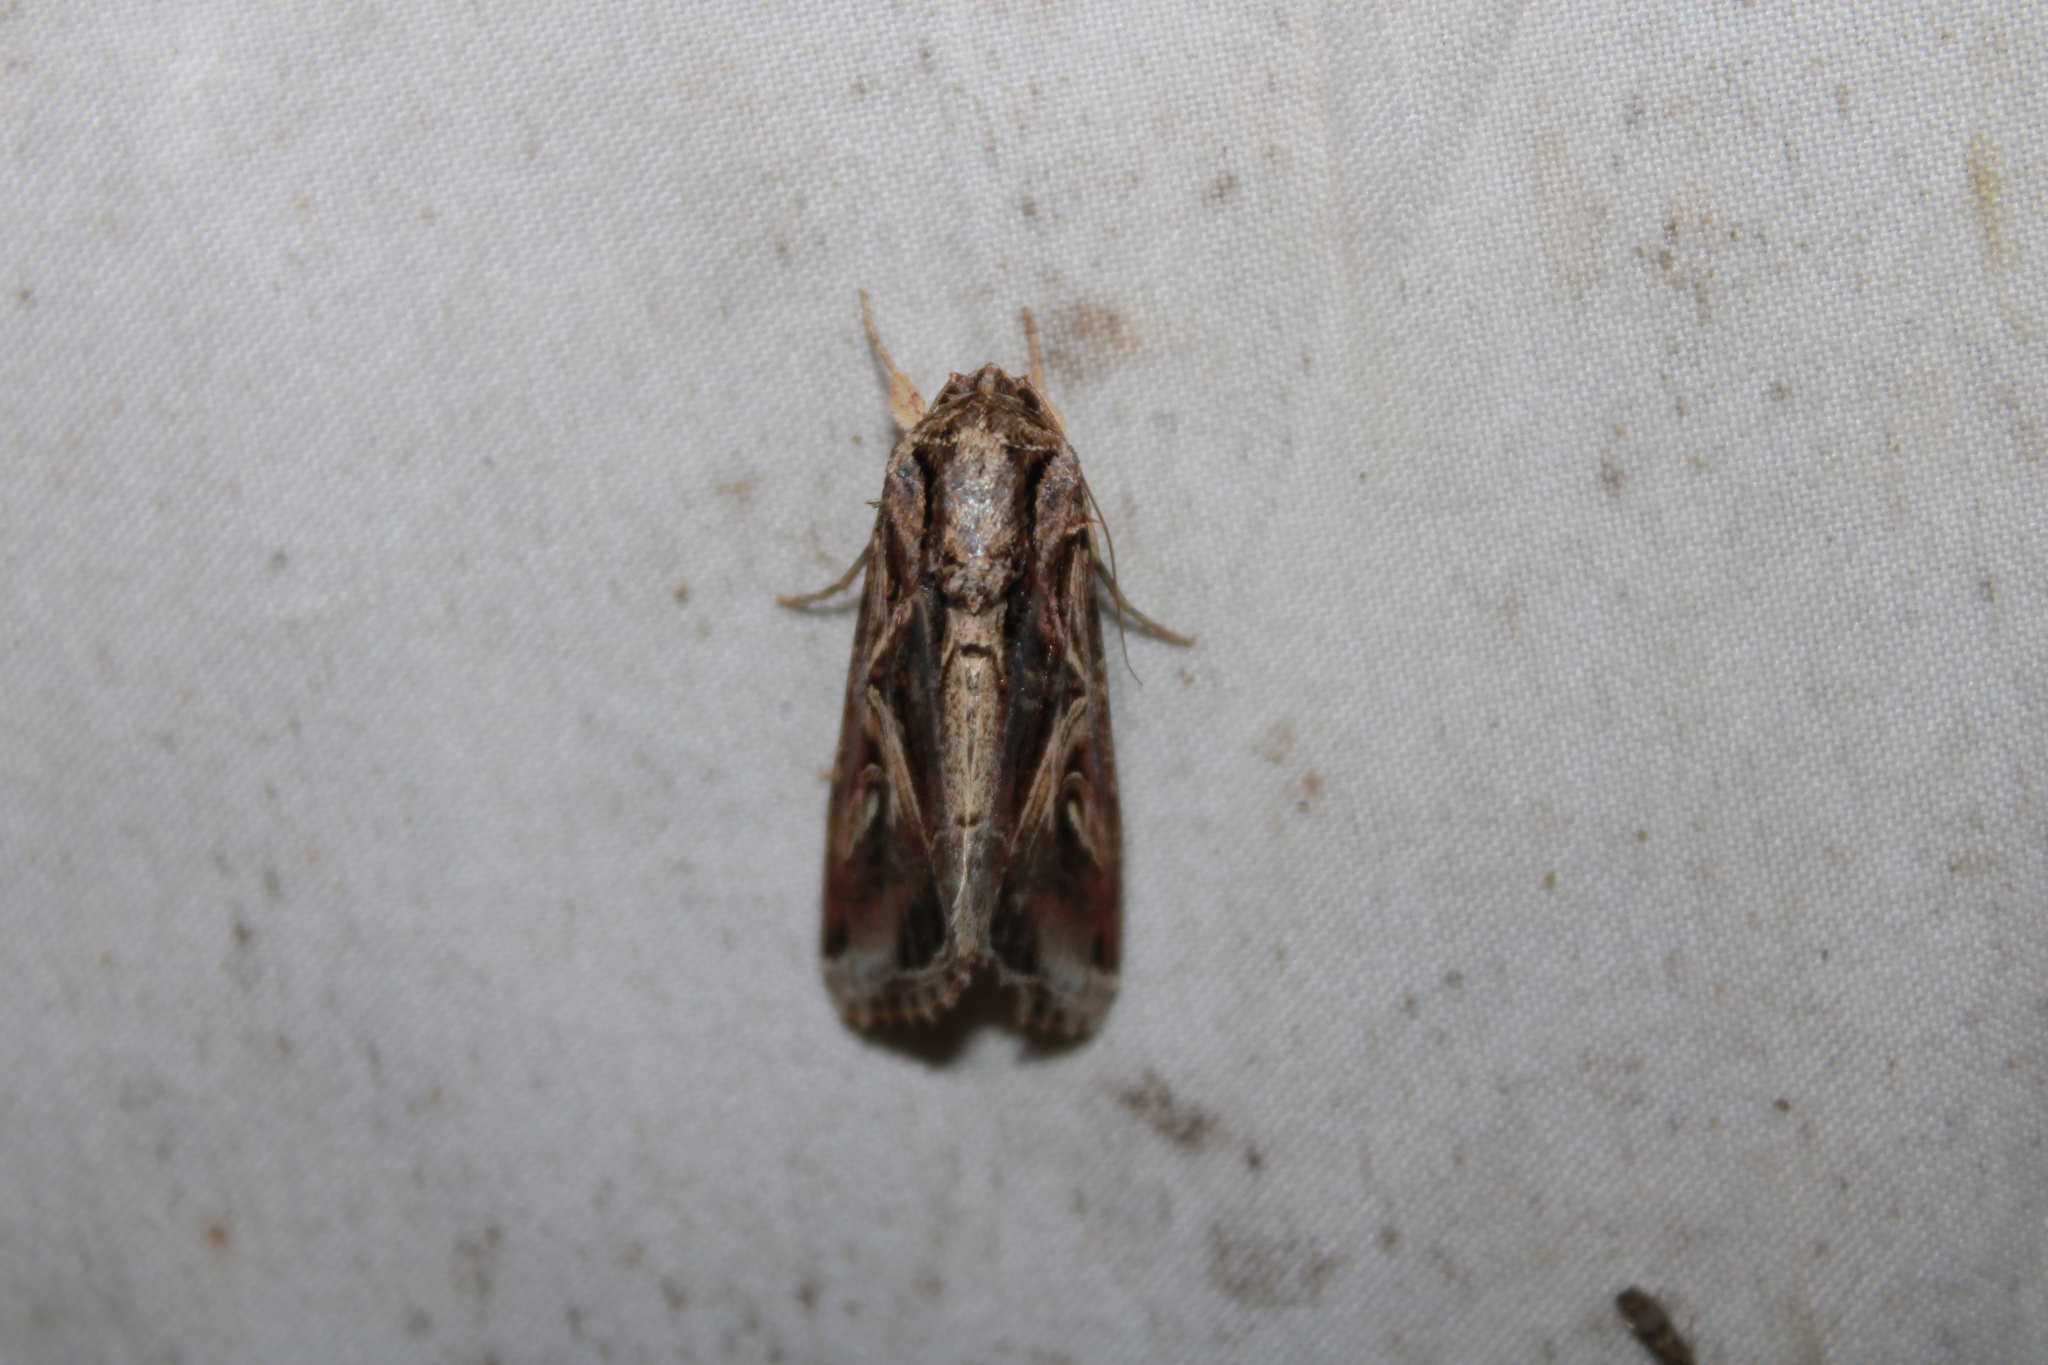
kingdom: Animalia
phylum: Arthropoda
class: Insecta
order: Lepidoptera
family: Noctuidae
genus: Spodoptera
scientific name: Spodoptera dolichos
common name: Sweetpotato armyworm
